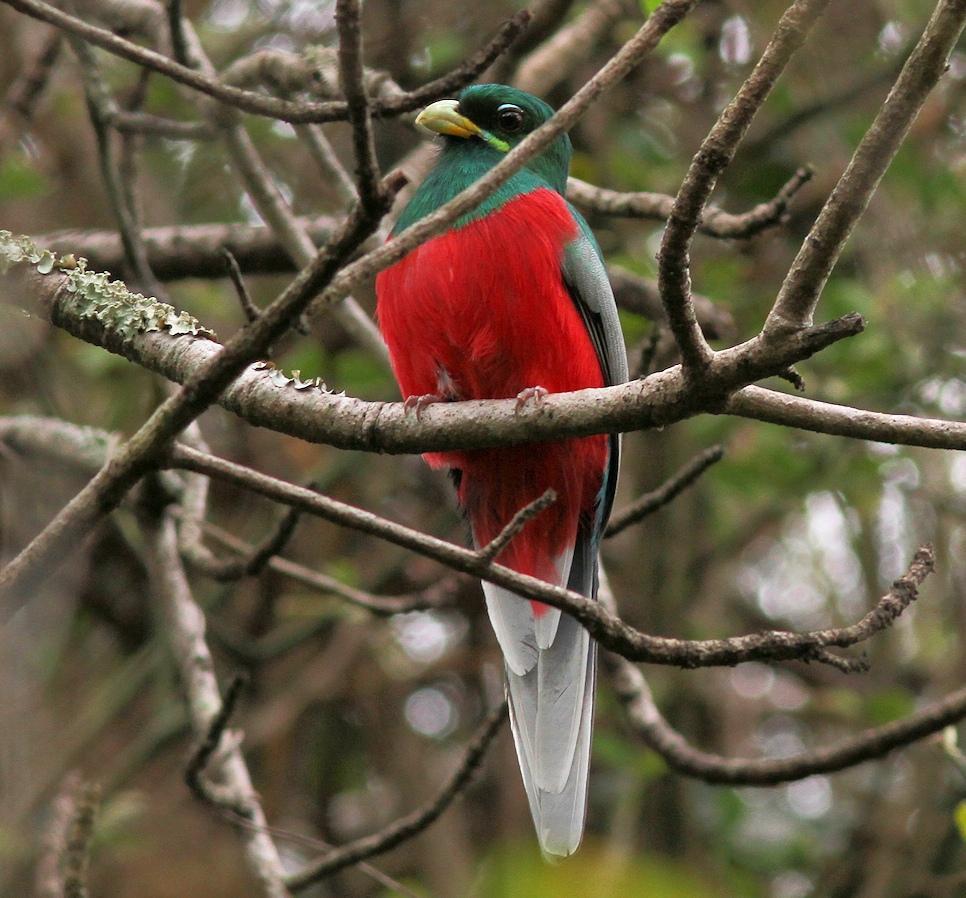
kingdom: Animalia
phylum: Chordata
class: Aves
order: Trogoniformes
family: Trogonidae
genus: Apaloderma
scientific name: Apaloderma narina
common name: Narina trogon
